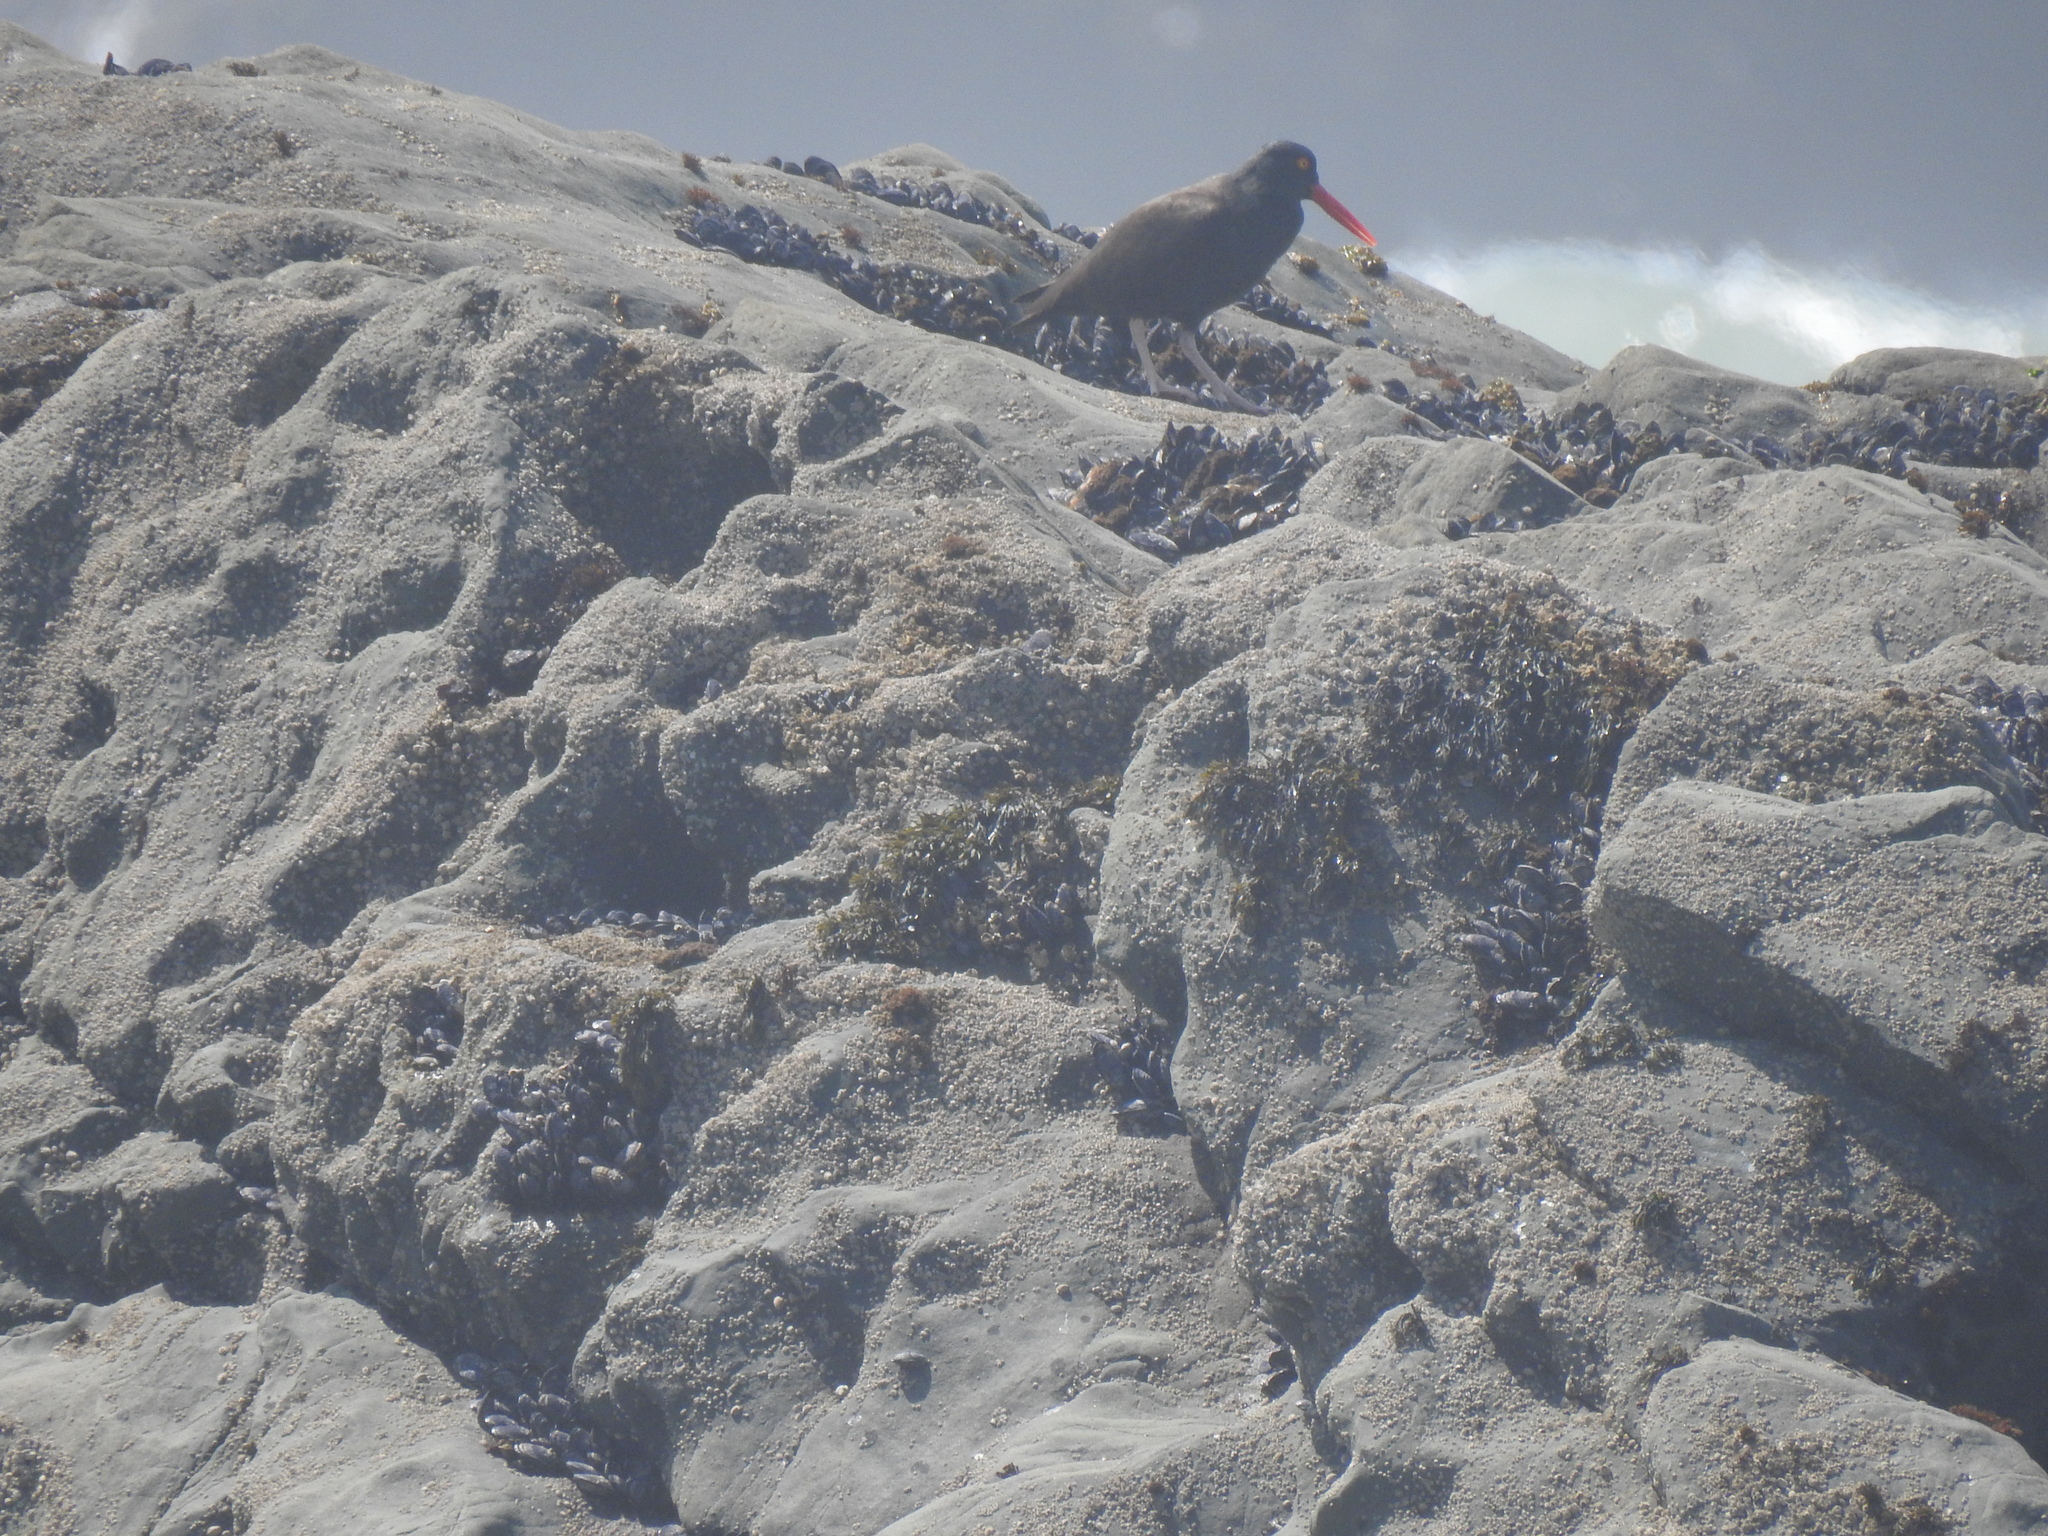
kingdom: Animalia
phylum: Chordata
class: Aves
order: Charadriiformes
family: Haematopodidae
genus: Haematopus
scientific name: Haematopus bachmani
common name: Black oystercatcher
